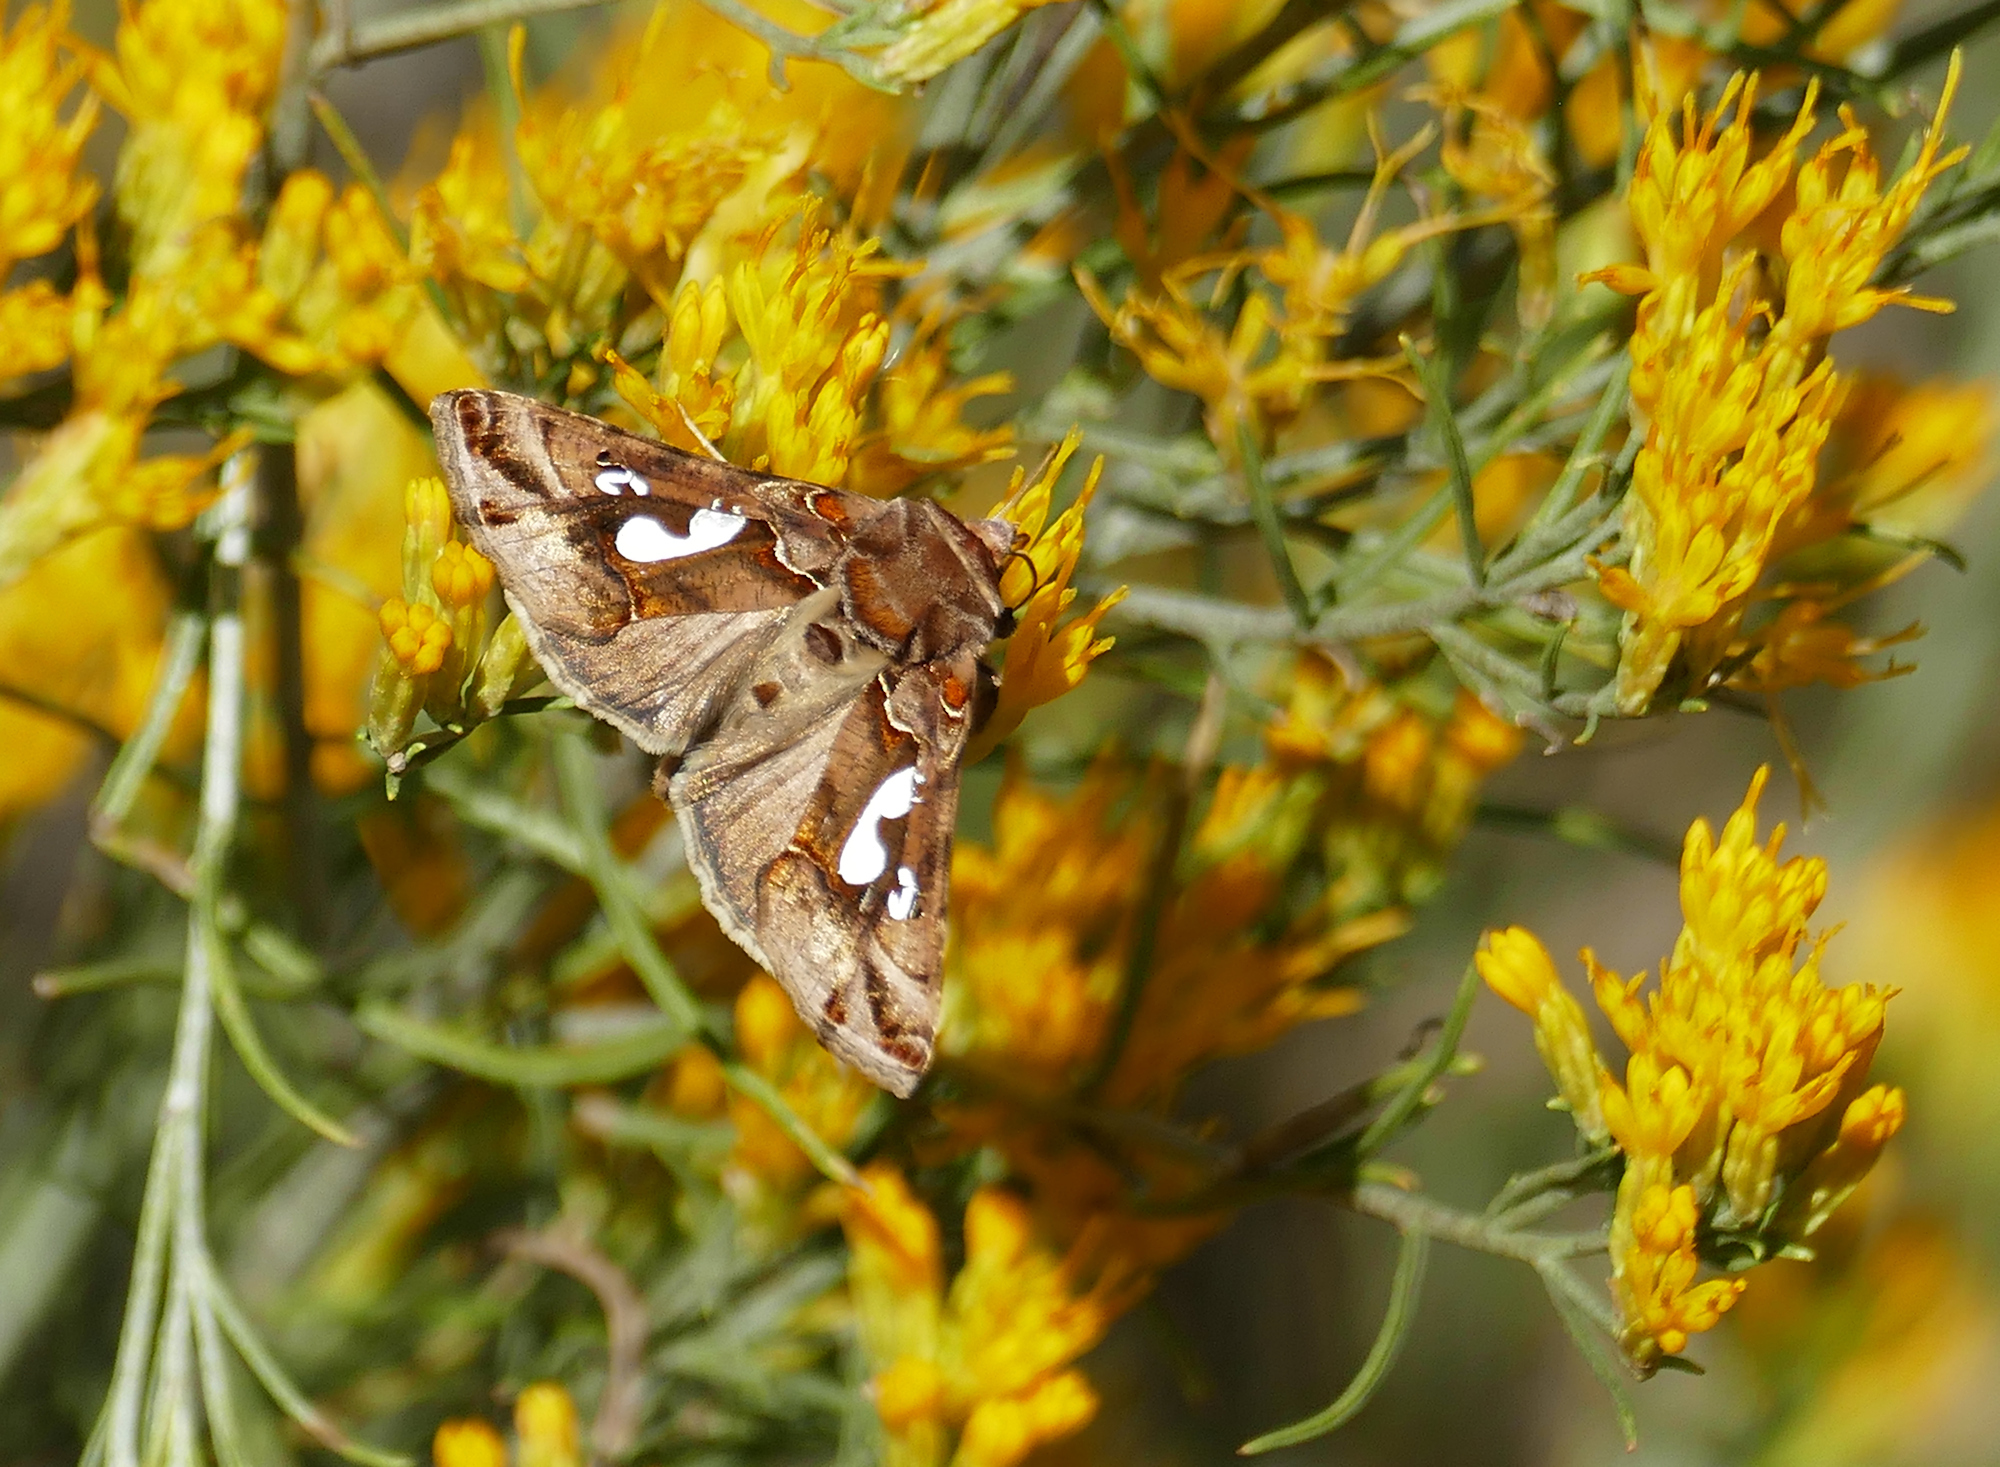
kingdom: Animalia
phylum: Arthropoda
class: Insecta
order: Lepidoptera
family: Noctuidae
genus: Megalographa
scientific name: Megalographa biloba
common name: Cutworm
